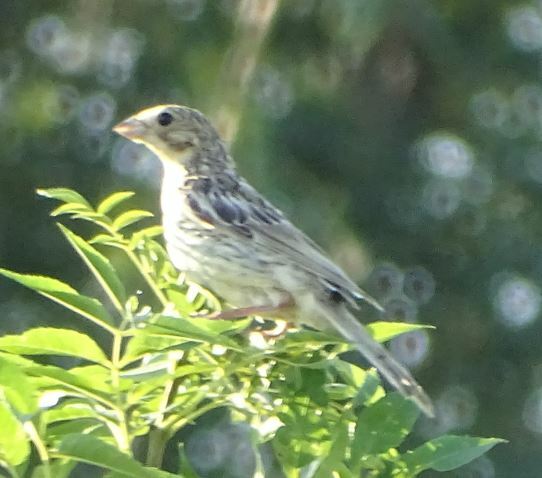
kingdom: Animalia
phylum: Chordata
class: Aves
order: Passeriformes
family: Emberizidae
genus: Emberiza
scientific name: Emberiza calandra
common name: Corn bunting
